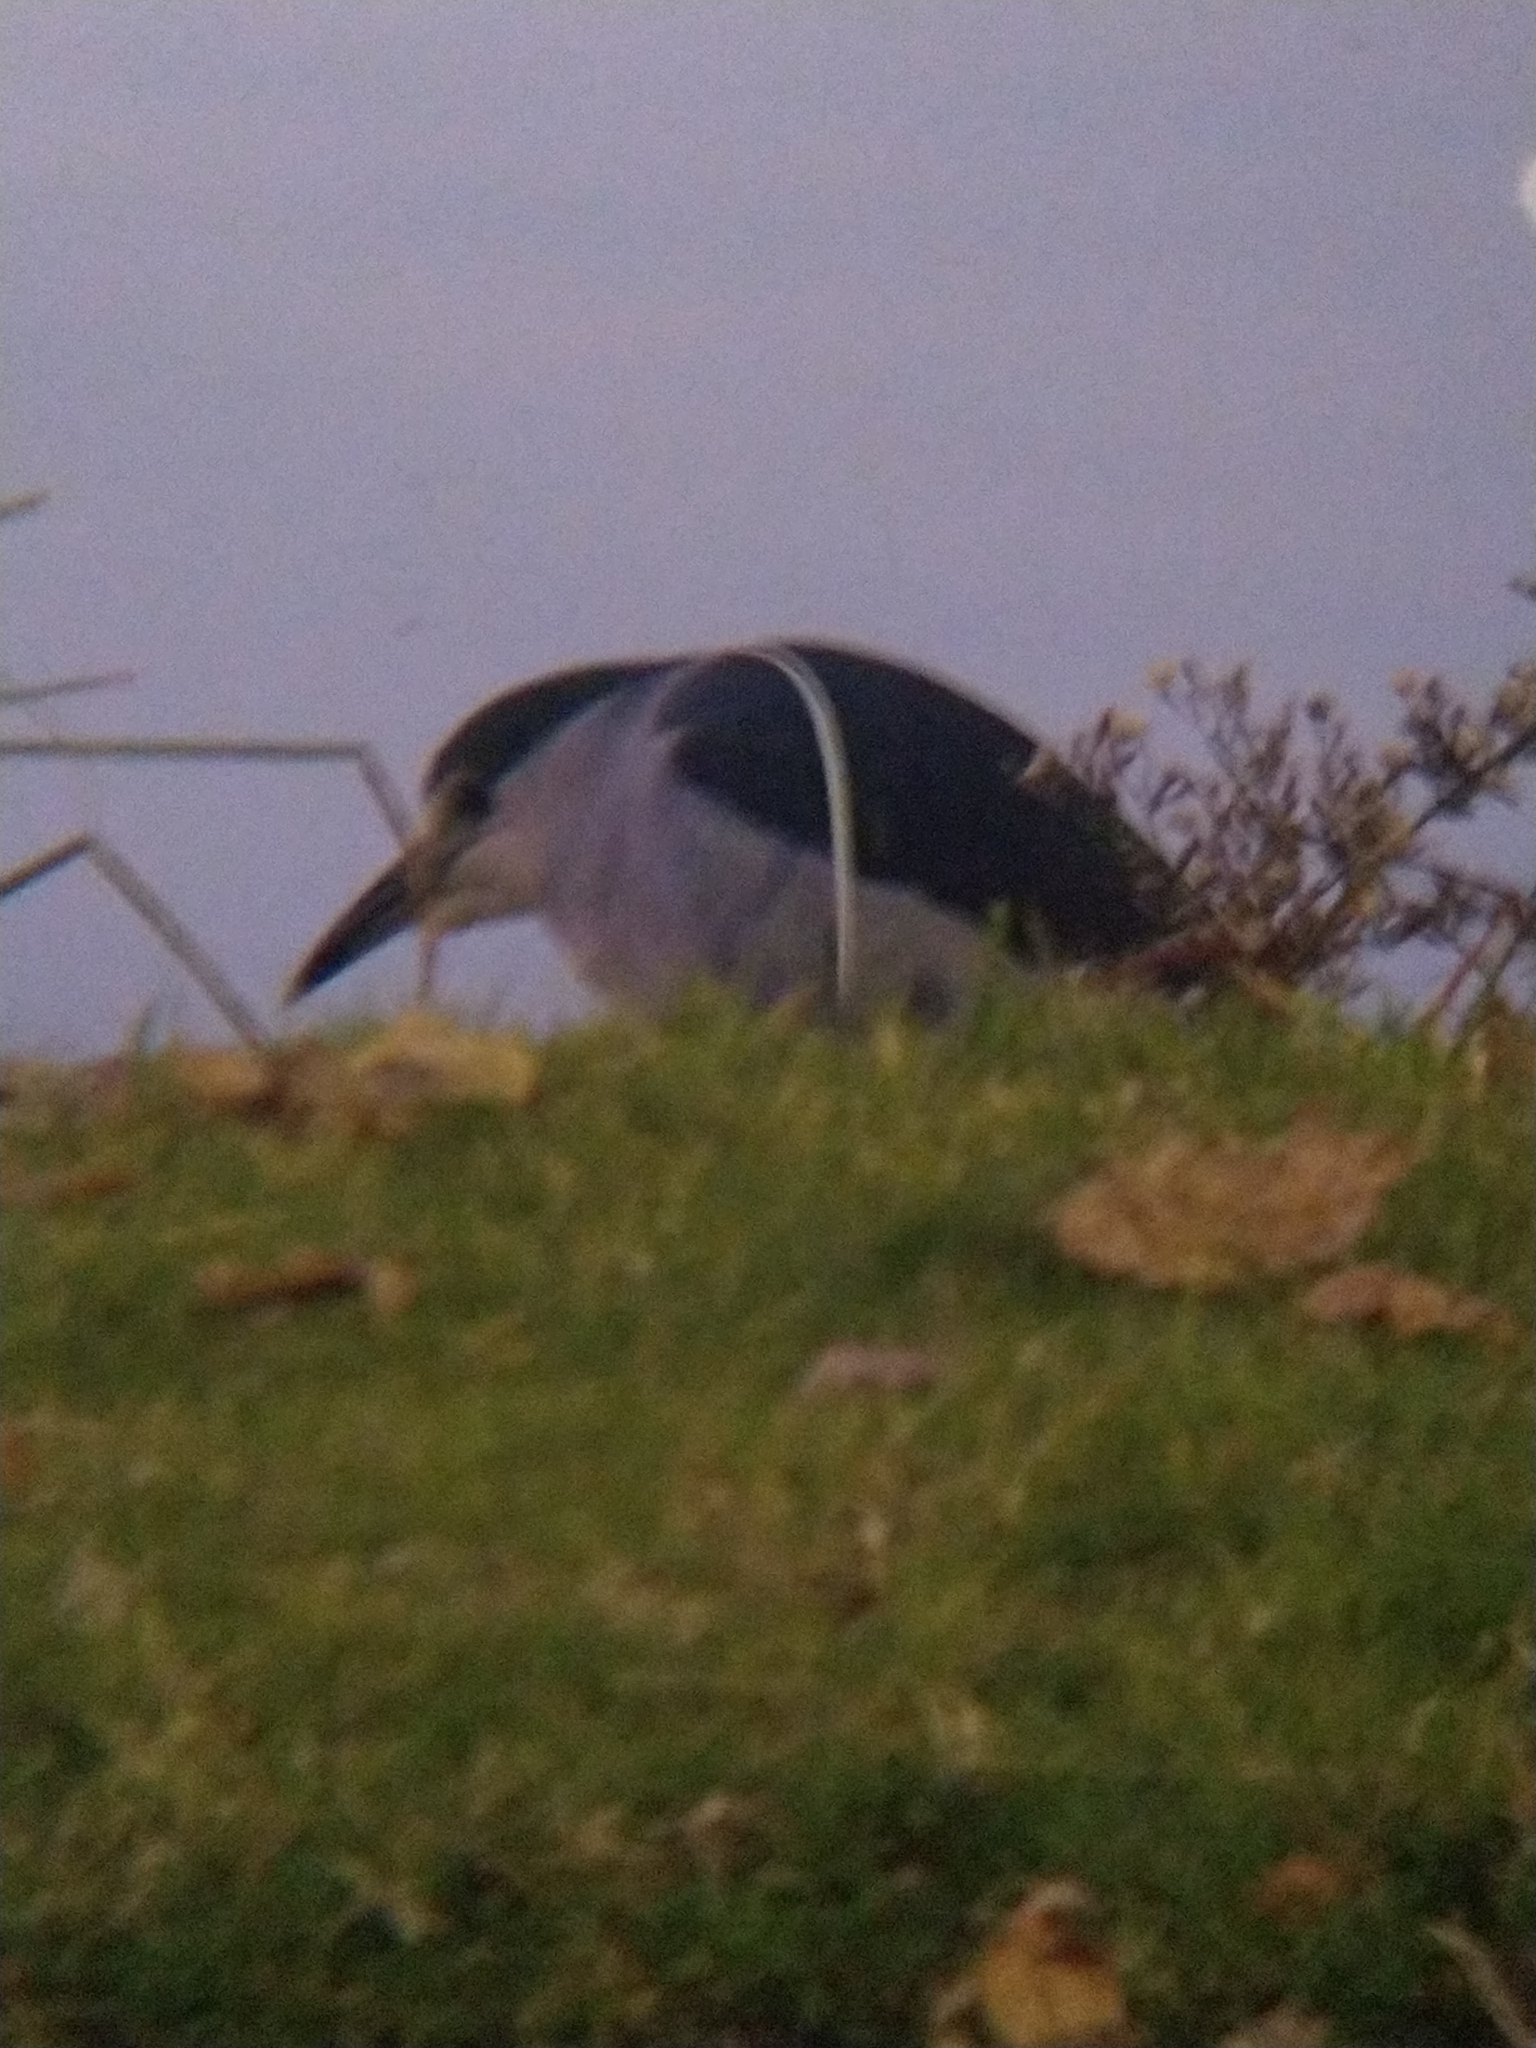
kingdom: Animalia
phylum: Chordata
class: Aves
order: Pelecaniformes
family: Ardeidae
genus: Nycticorax
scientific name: Nycticorax nycticorax
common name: Black-crowned night heron
